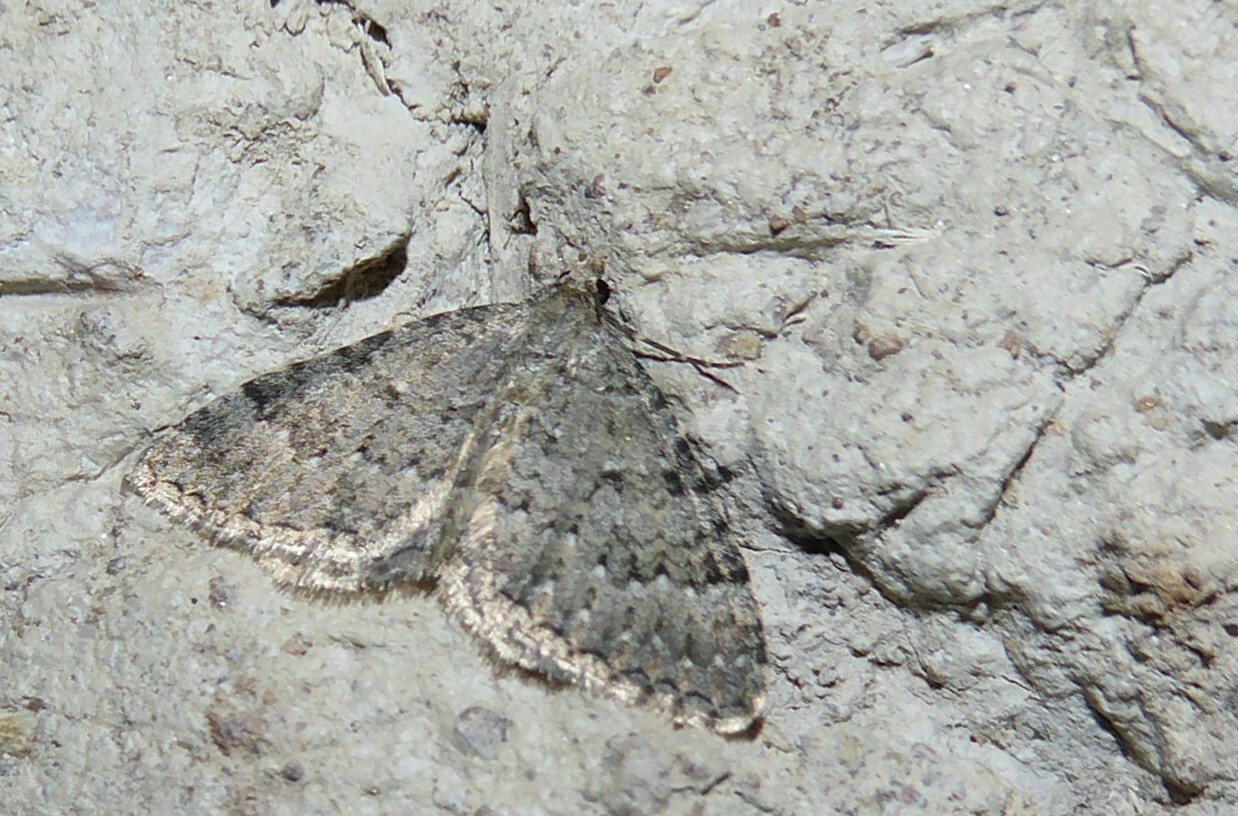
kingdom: Animalia
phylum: Arthropoda
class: Insecta
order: Lepidoptera
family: Geometridae
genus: Helastia
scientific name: Helastia corcularia
